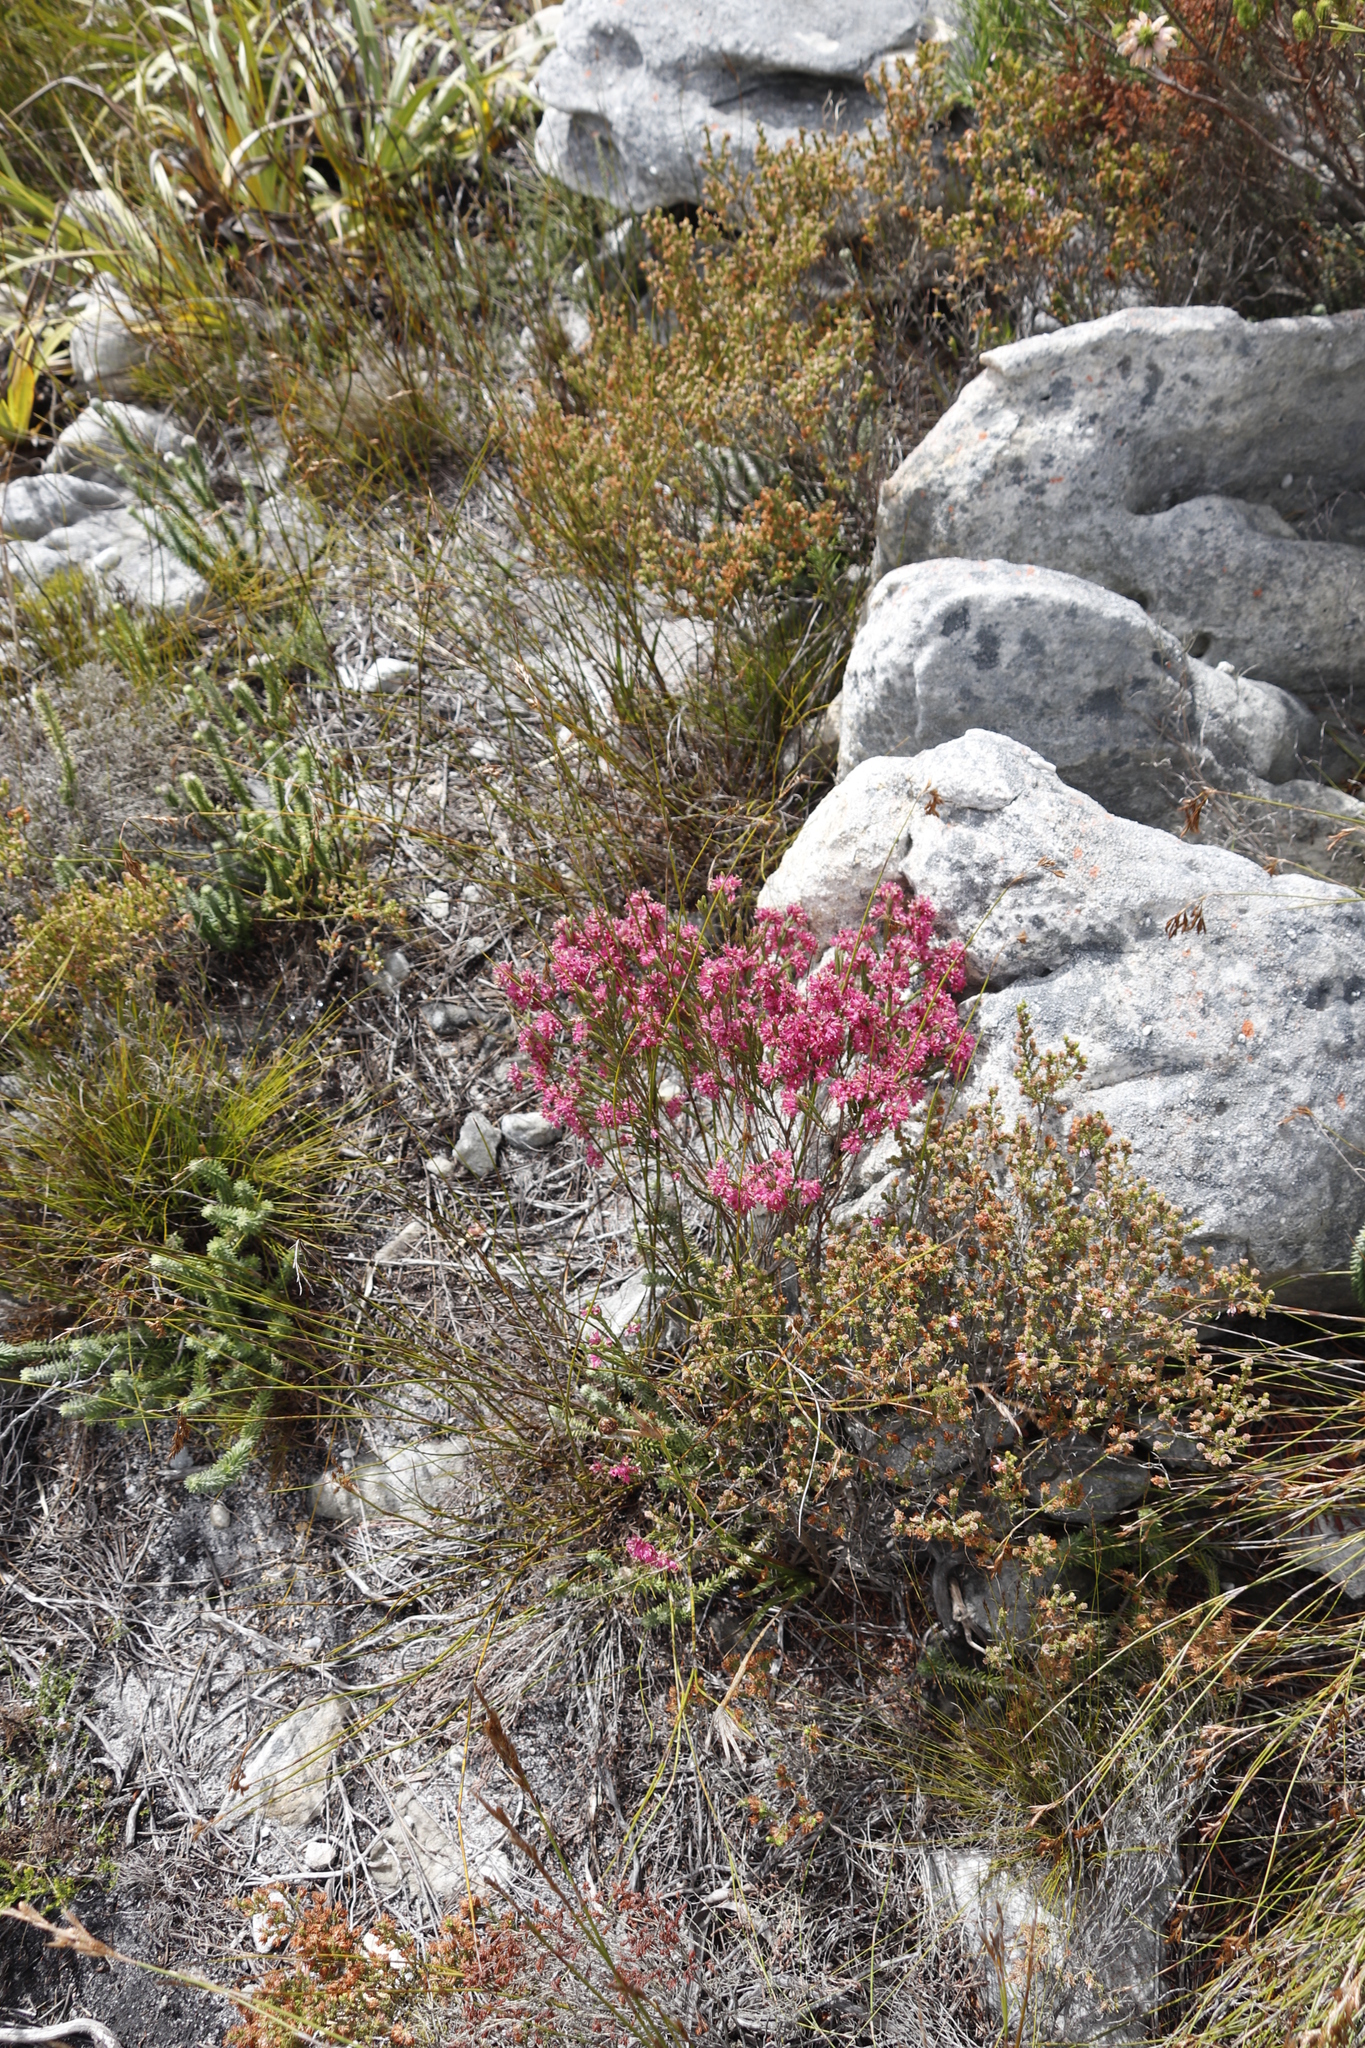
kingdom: Plantae
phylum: Tracheophyta
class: Magnoliopsida
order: Ericales
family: Ericaceae
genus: Erica
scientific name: Erica corifolia
